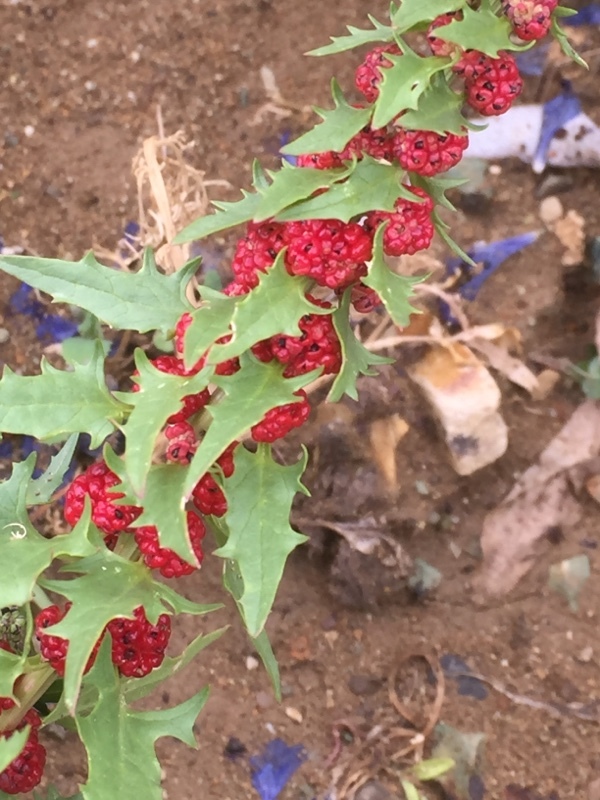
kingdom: Plantae
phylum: Tracheophyta
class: Magnoliopsida
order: Caryophyllales
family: Amaranthaceae
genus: Blitum
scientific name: Blitum capitatum
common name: Strawberry-blight
